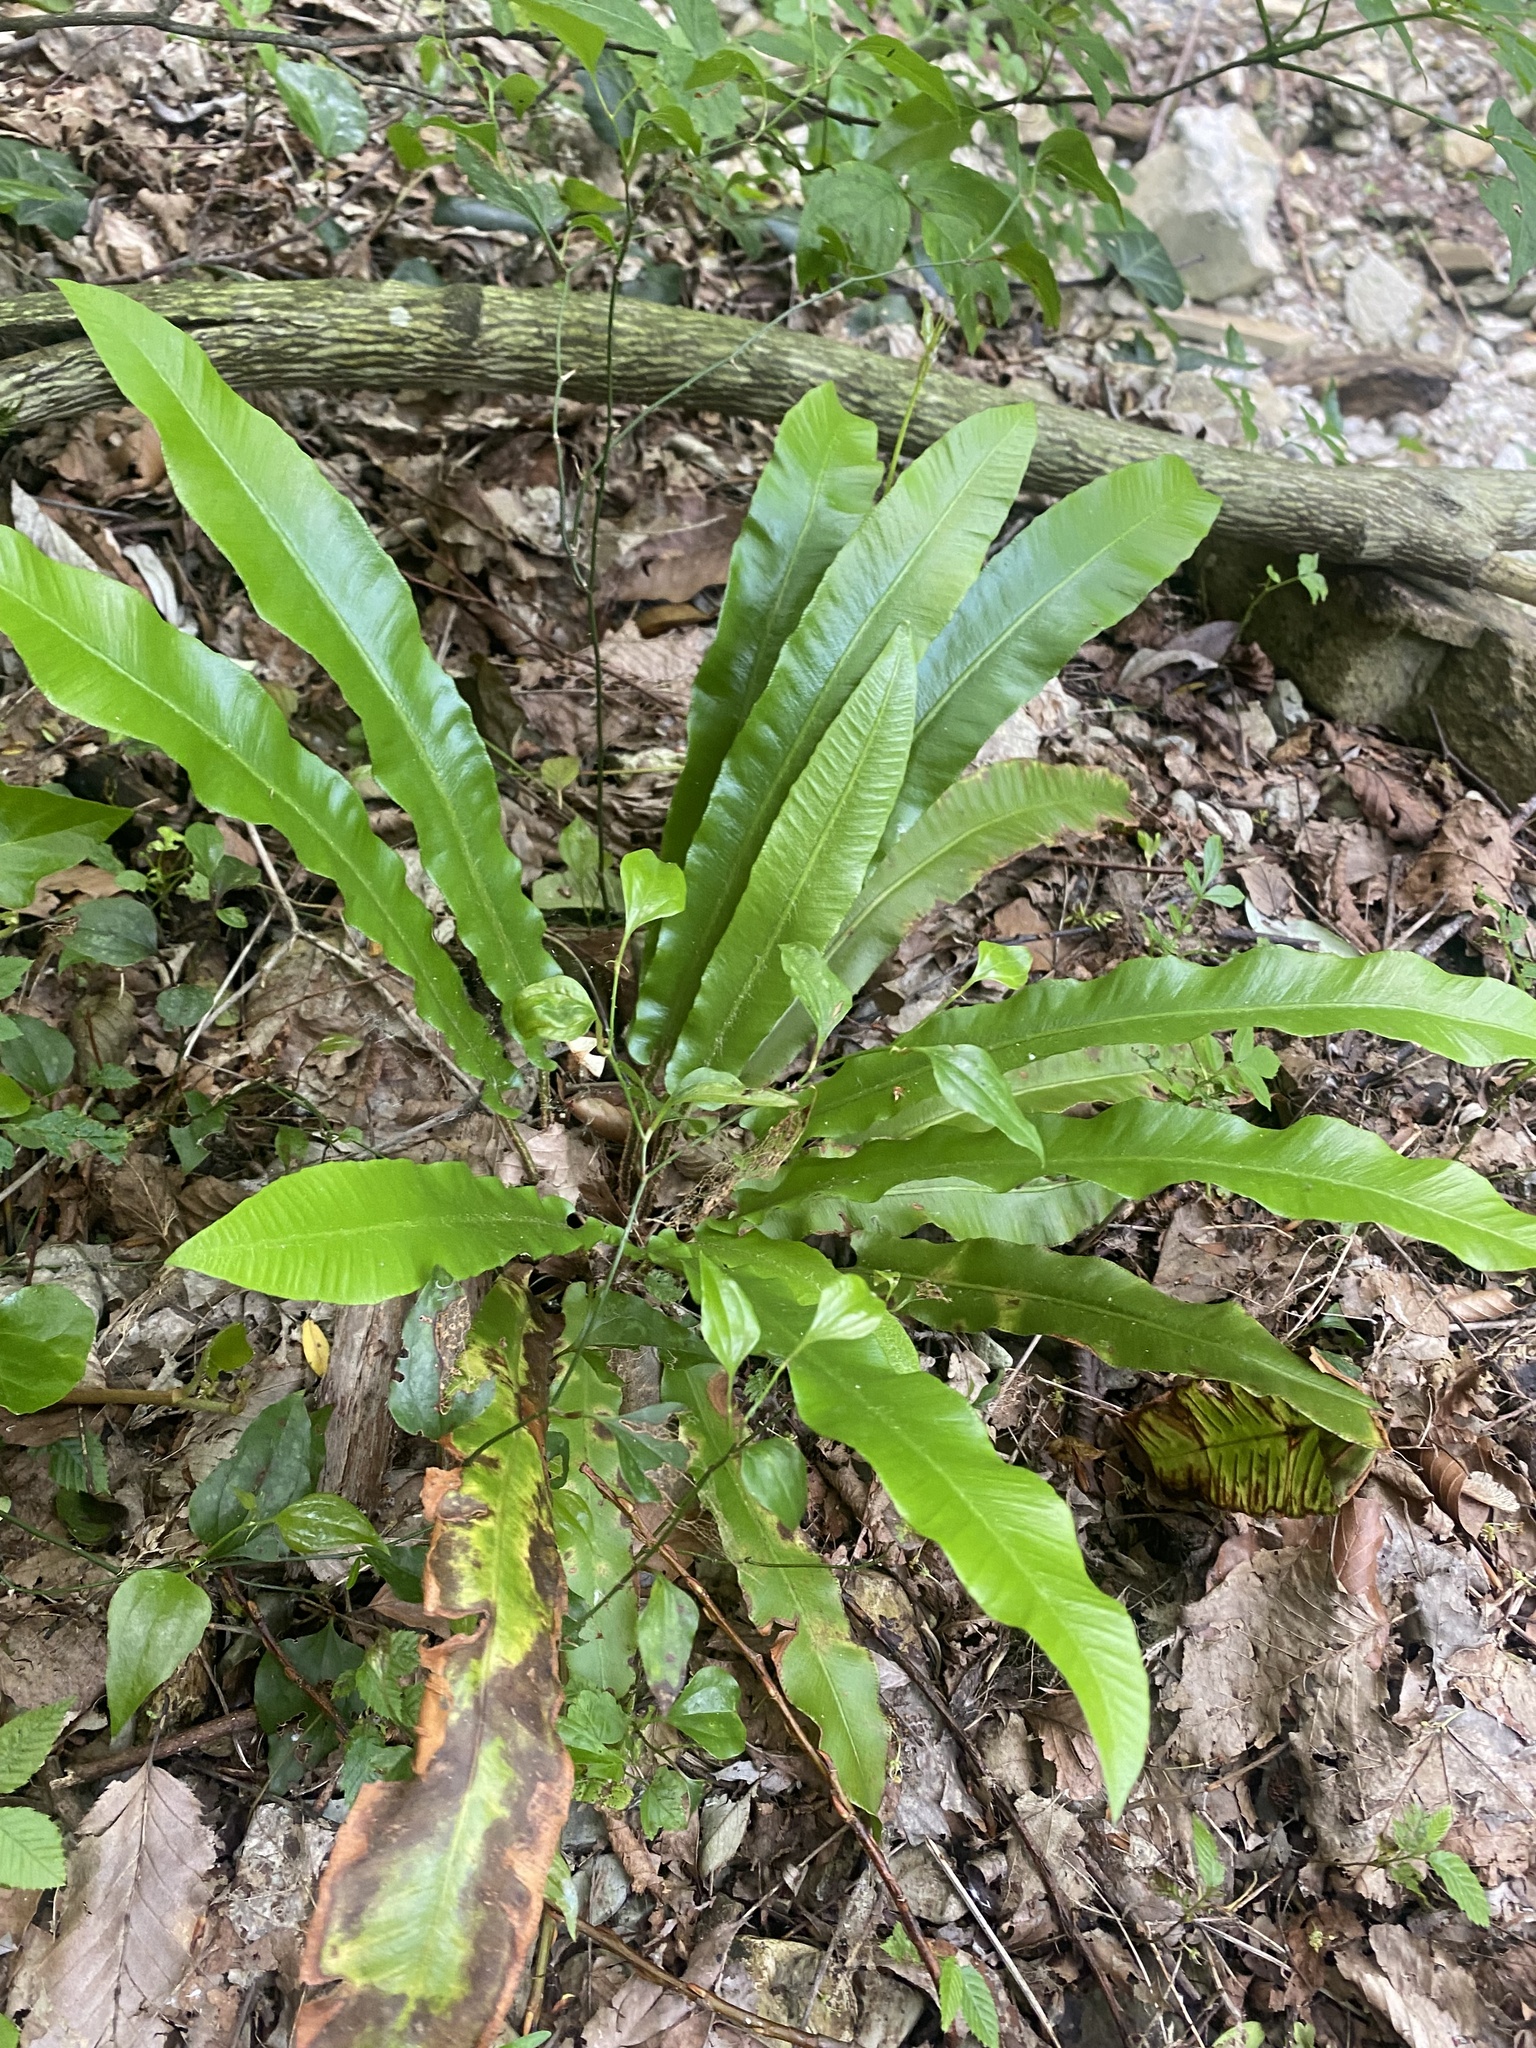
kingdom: Plantae
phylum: Tracheophyta
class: Polypodiopsida
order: Polypodiales
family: Aspleniaceae
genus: Asplenium
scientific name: Asplenium scolopendrium
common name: Hart's-tongue fern
